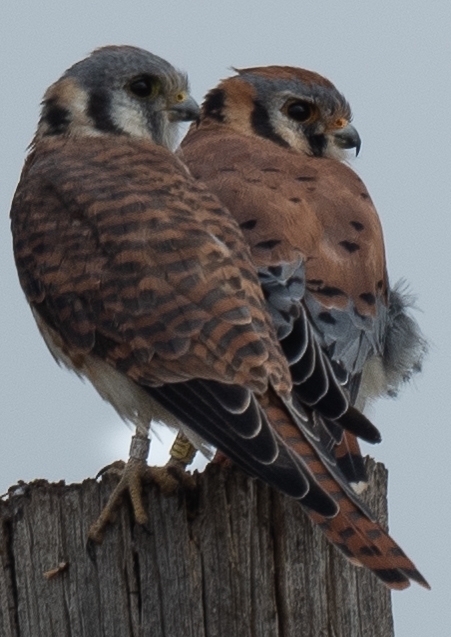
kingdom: Animalia
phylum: Chordata
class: Aves
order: Falconiformes
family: Falconidae
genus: Falco
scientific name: Falco sparverius
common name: American kestrel
